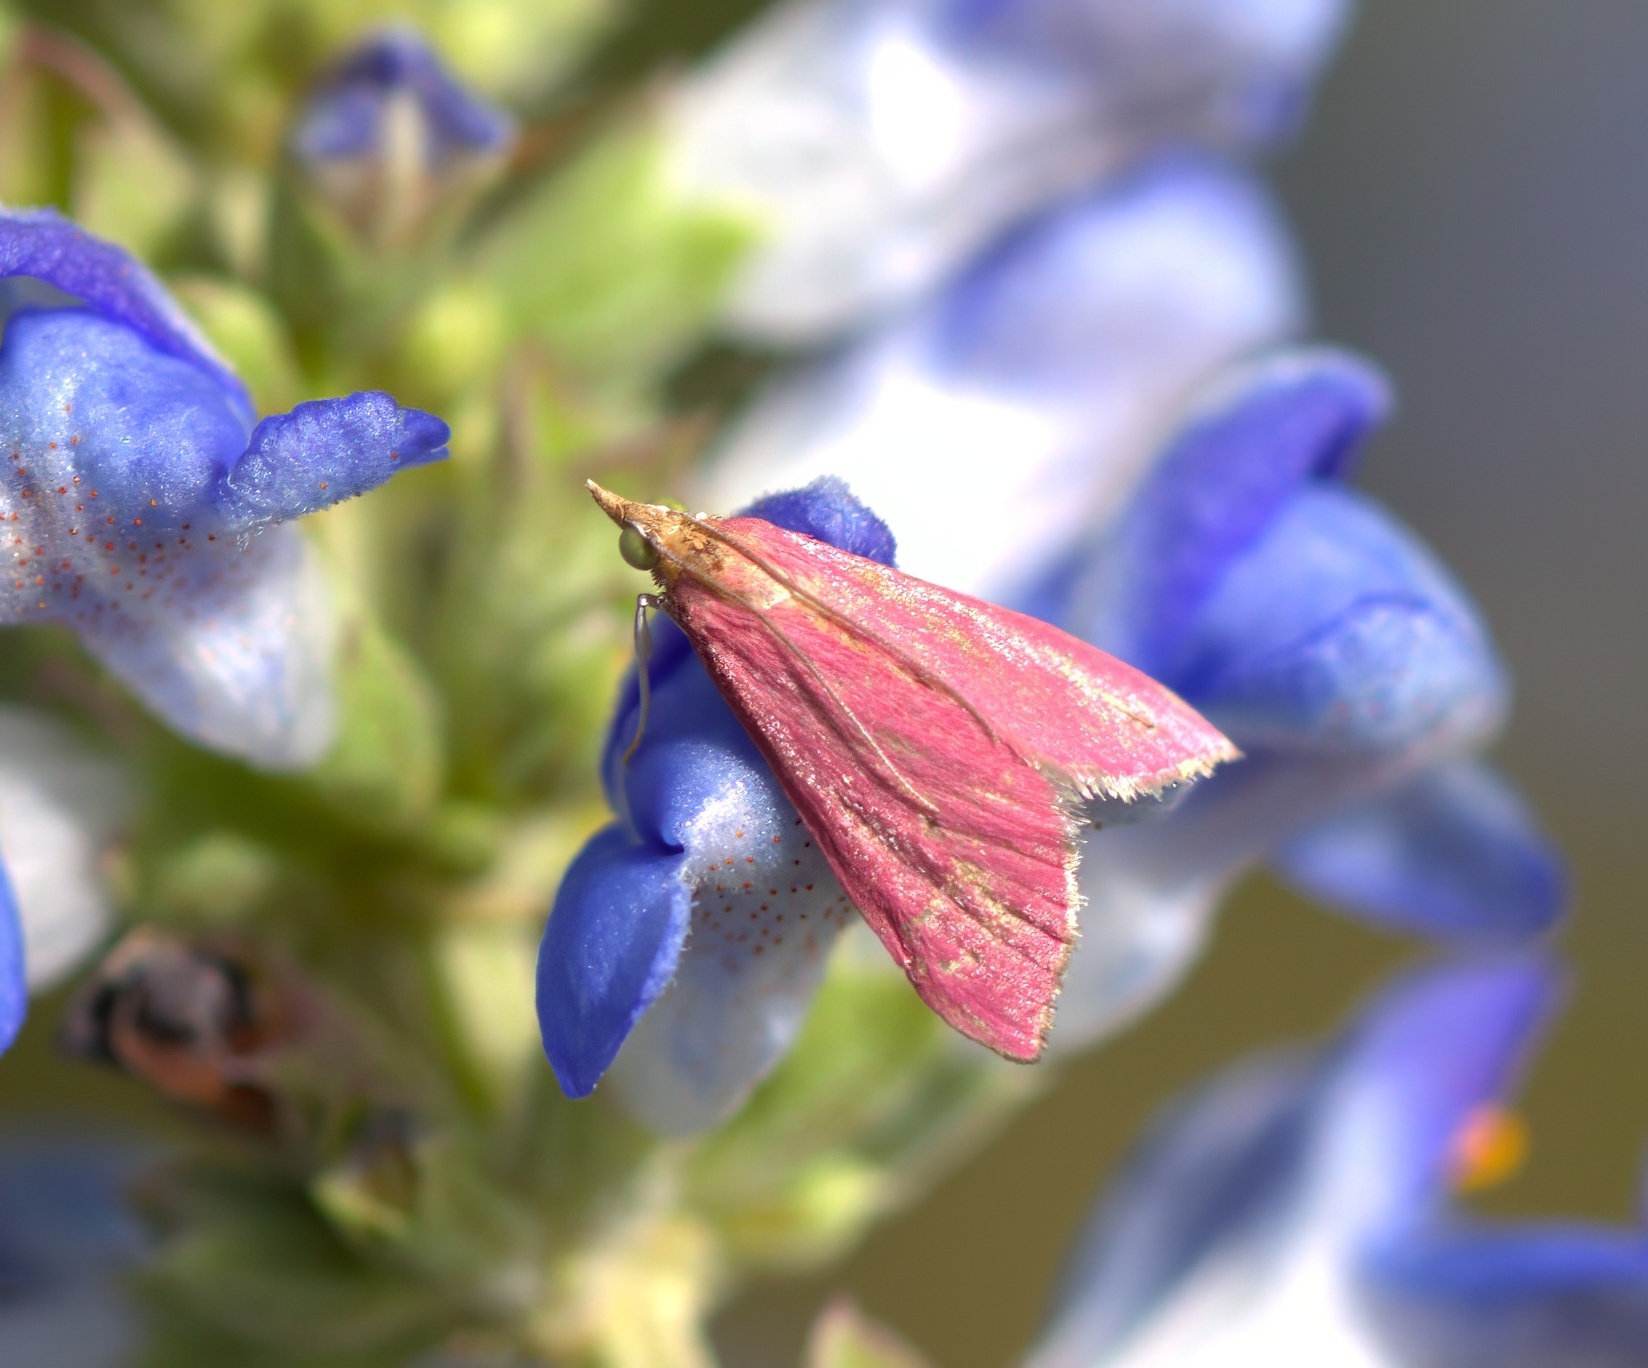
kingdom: Animalia
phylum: Arthropoda
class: Insecta
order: Lepidoptera
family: Crambidae
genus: Pyrausta
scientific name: Pyrausta inornatalis
